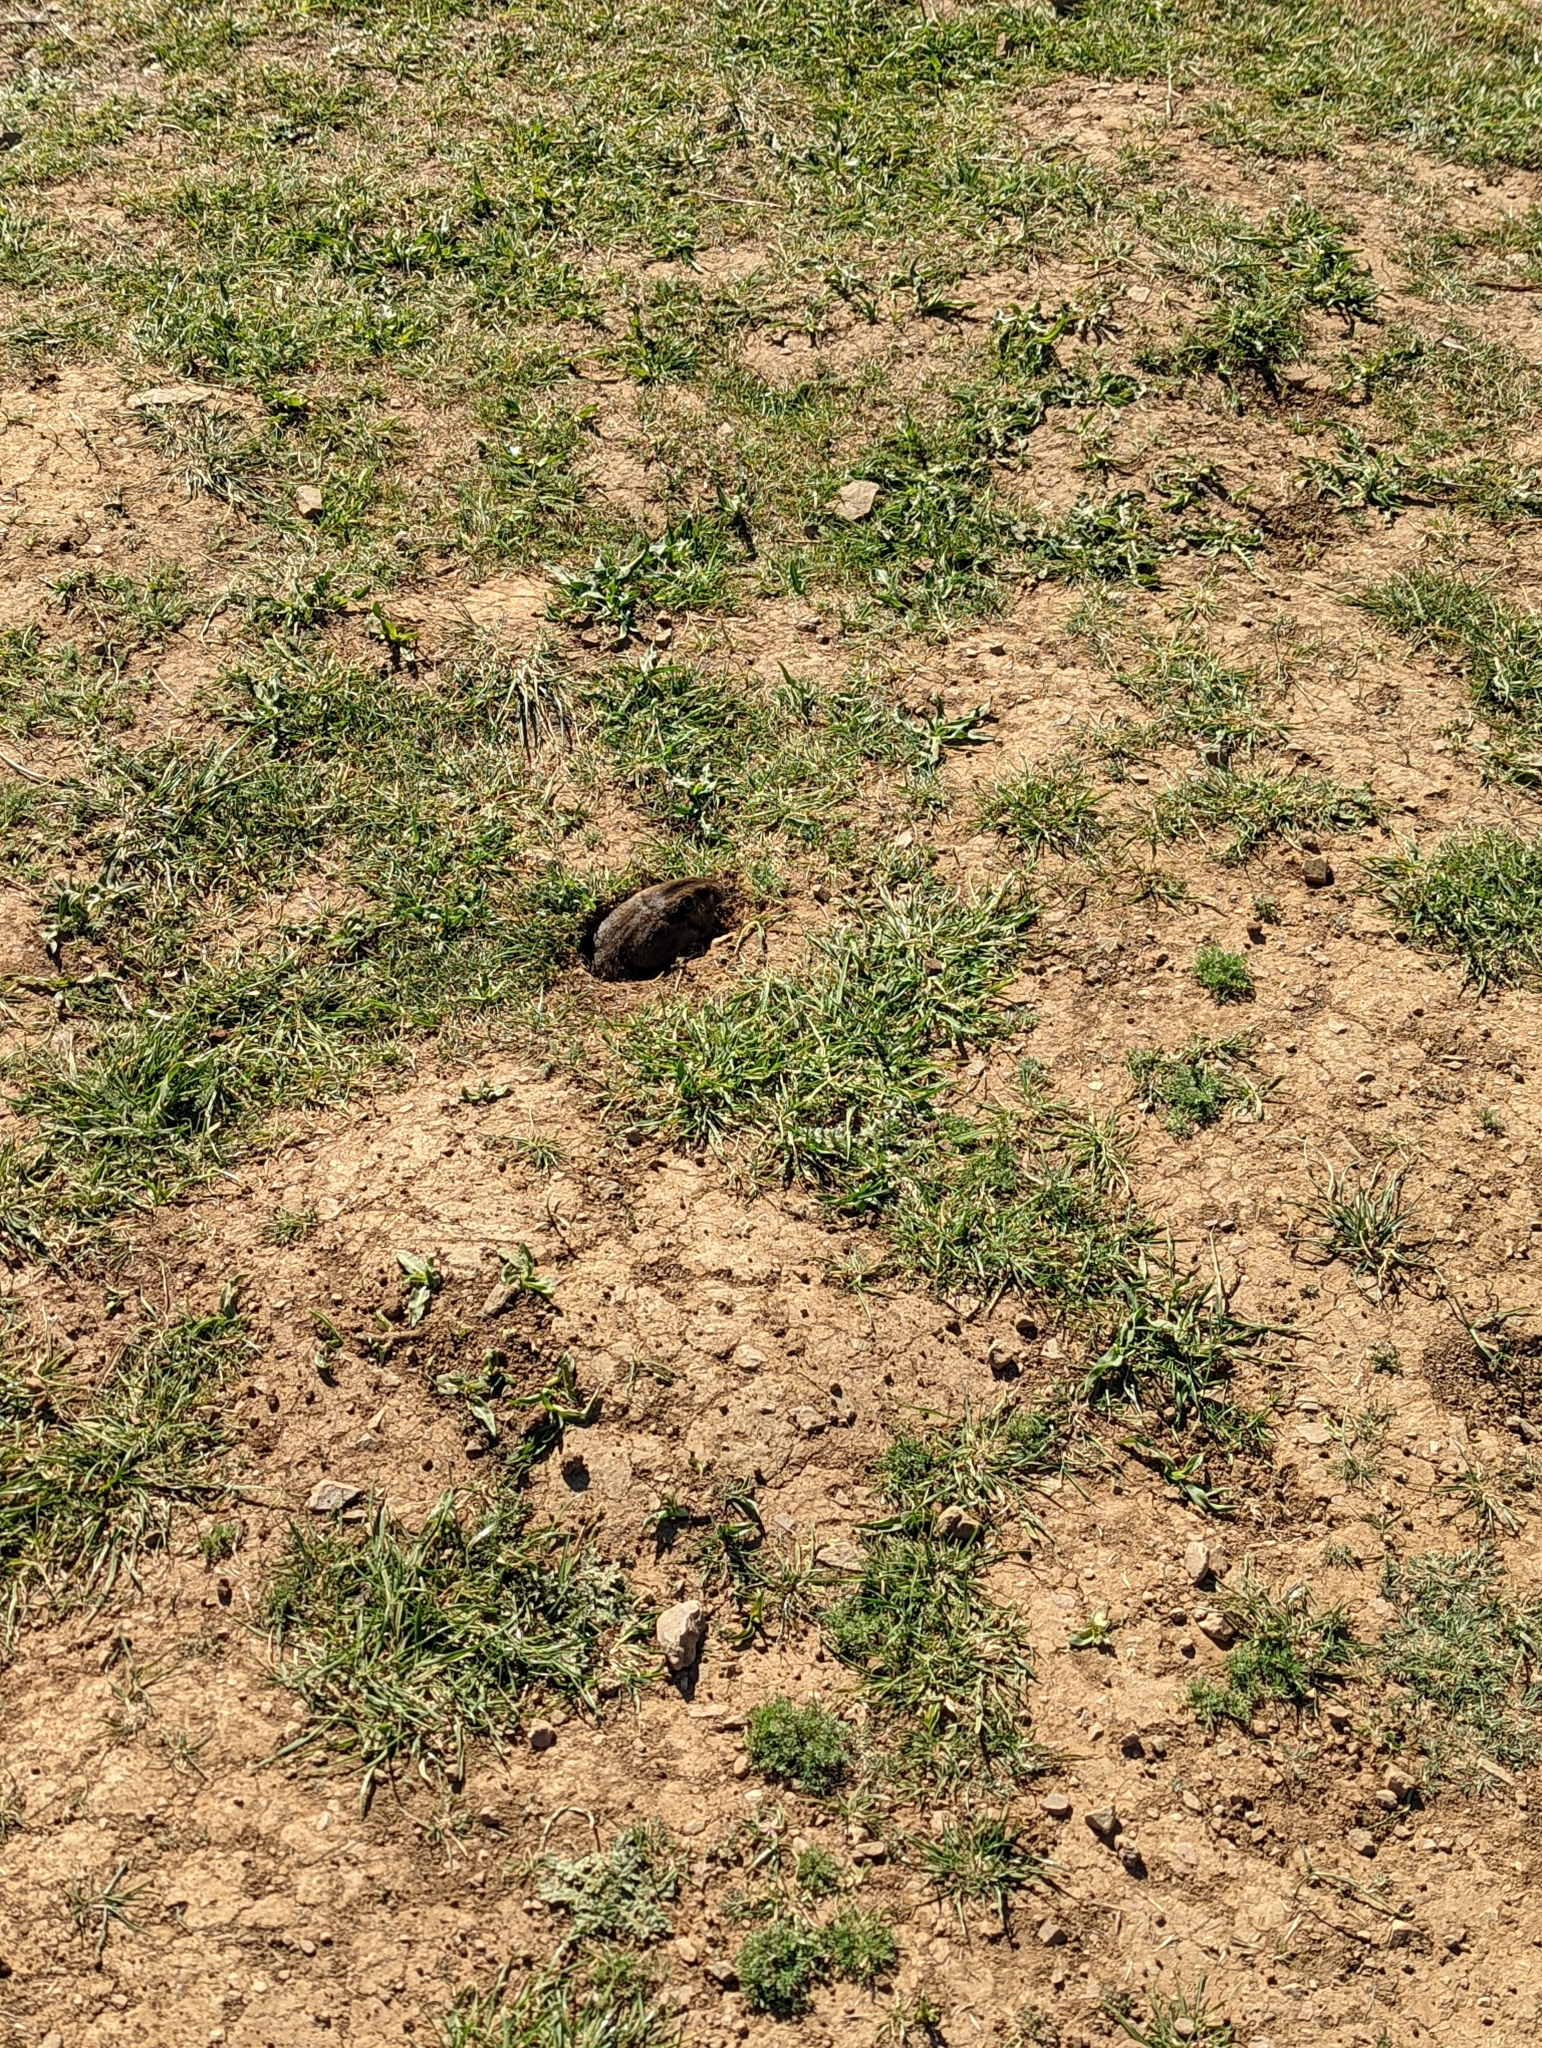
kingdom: Animalia
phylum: Chordata
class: Mammalia
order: Rodentia
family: Geomyidae
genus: Thomomys
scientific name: Thomomys bottae
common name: Botta's pocket gopher
